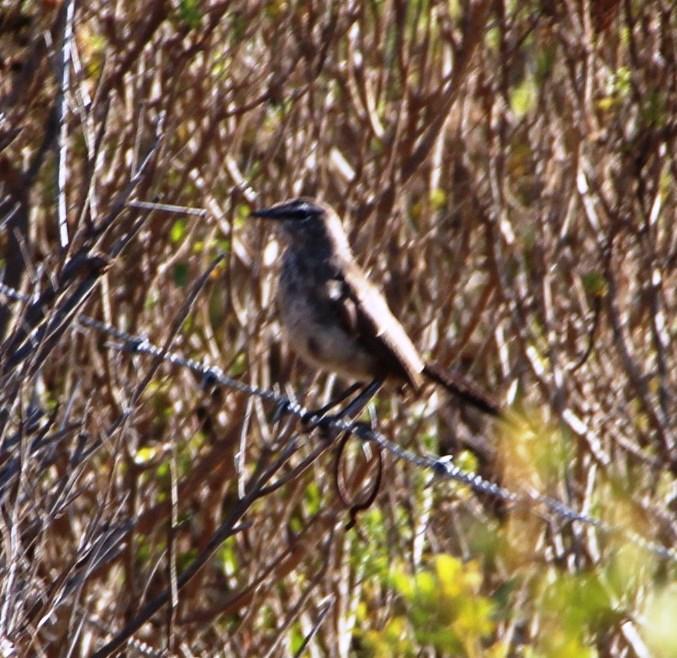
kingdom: Animalia
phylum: Chordata
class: Aves
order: Passeriformes
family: Muscicapidae
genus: Erythropygia
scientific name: Erythropygia coryphoeus
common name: Karoo scrub robin
